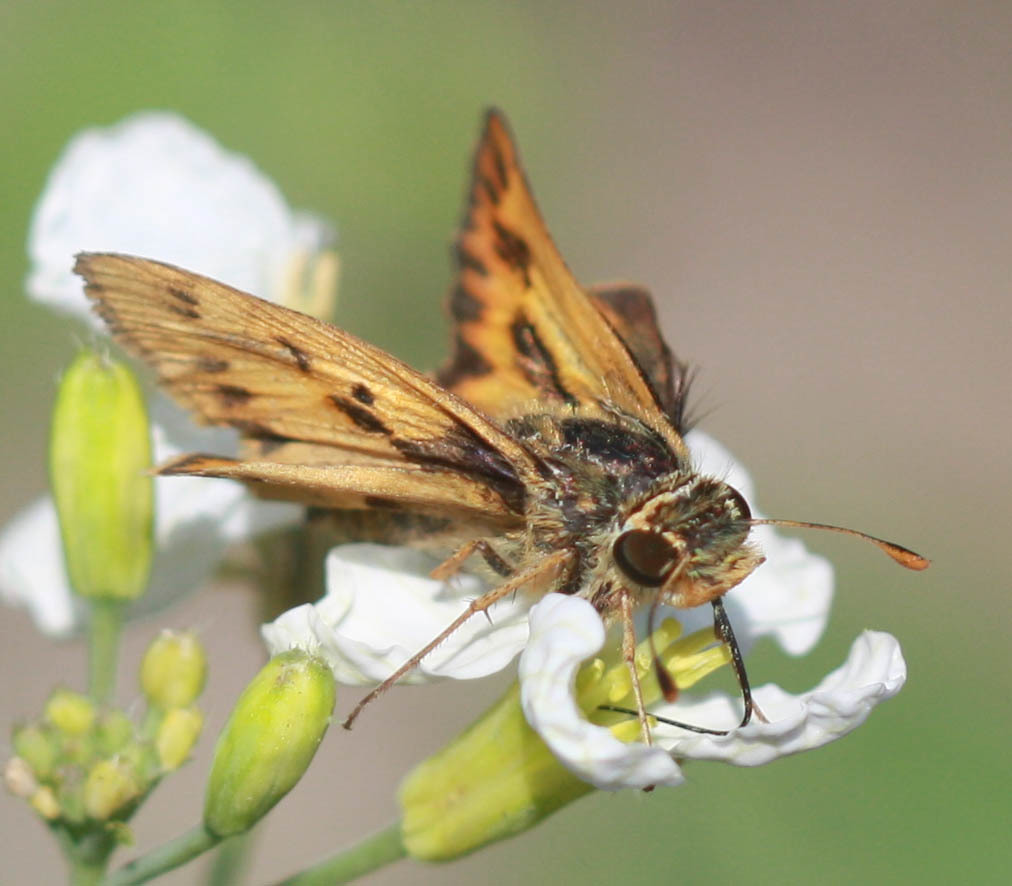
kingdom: Animalia
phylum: Arthropoda
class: Insecta
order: Lepidoptera
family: Hesperiidae
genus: Hylephila
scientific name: Hylephila phyleus
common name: Fiery skipper
